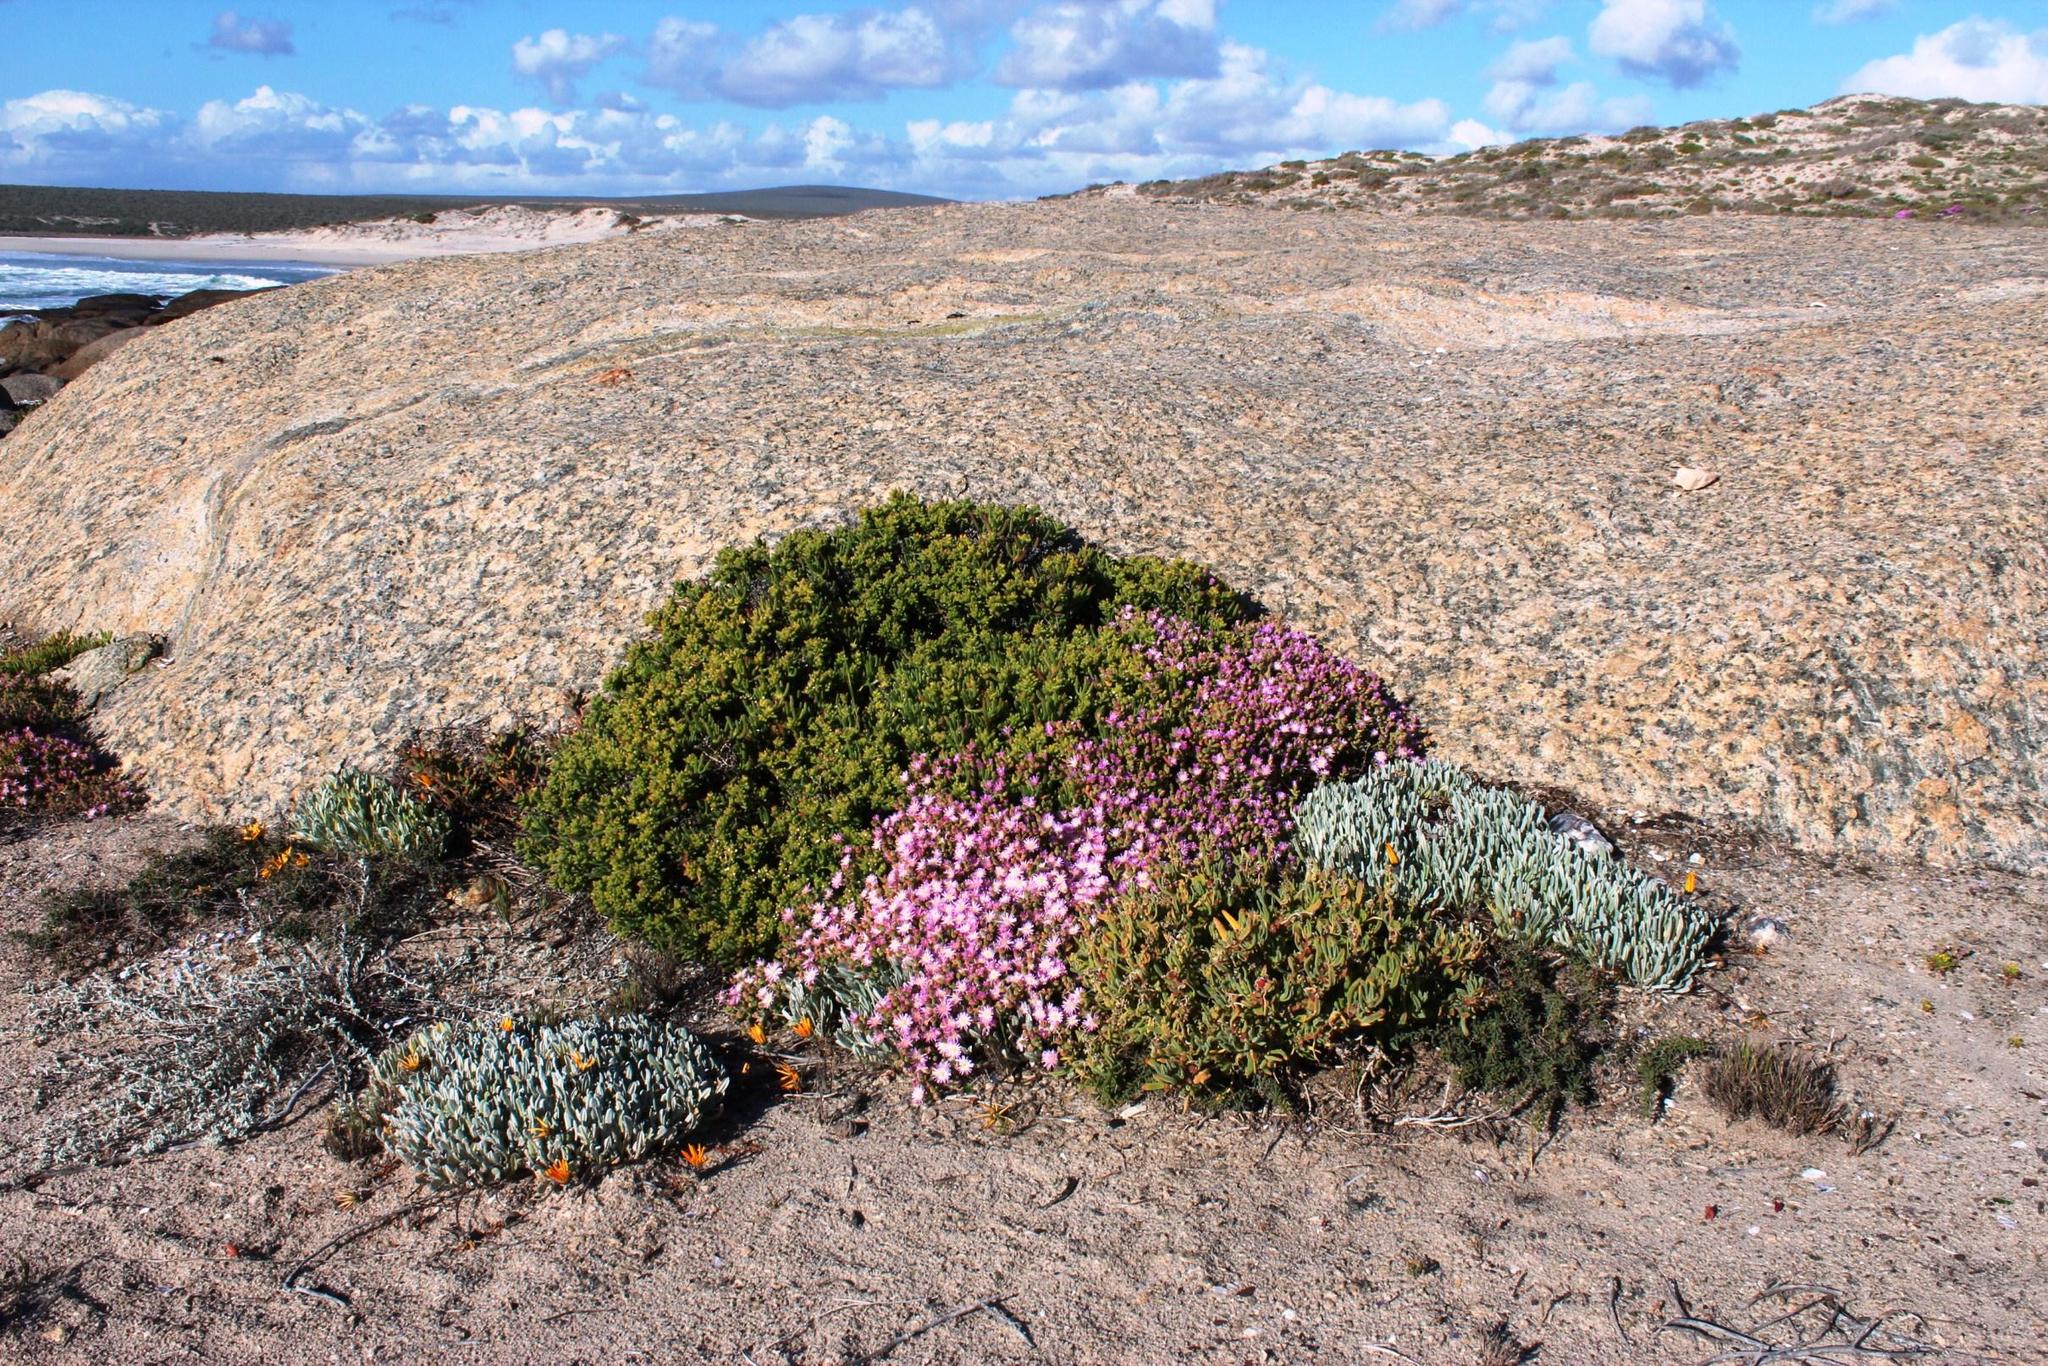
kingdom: Plantae
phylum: Tracheophyta
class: Magnoliopsida
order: Caryophyllales
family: Aizoaceae
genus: Drosanthemum
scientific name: Drosanthemum luederitzii
